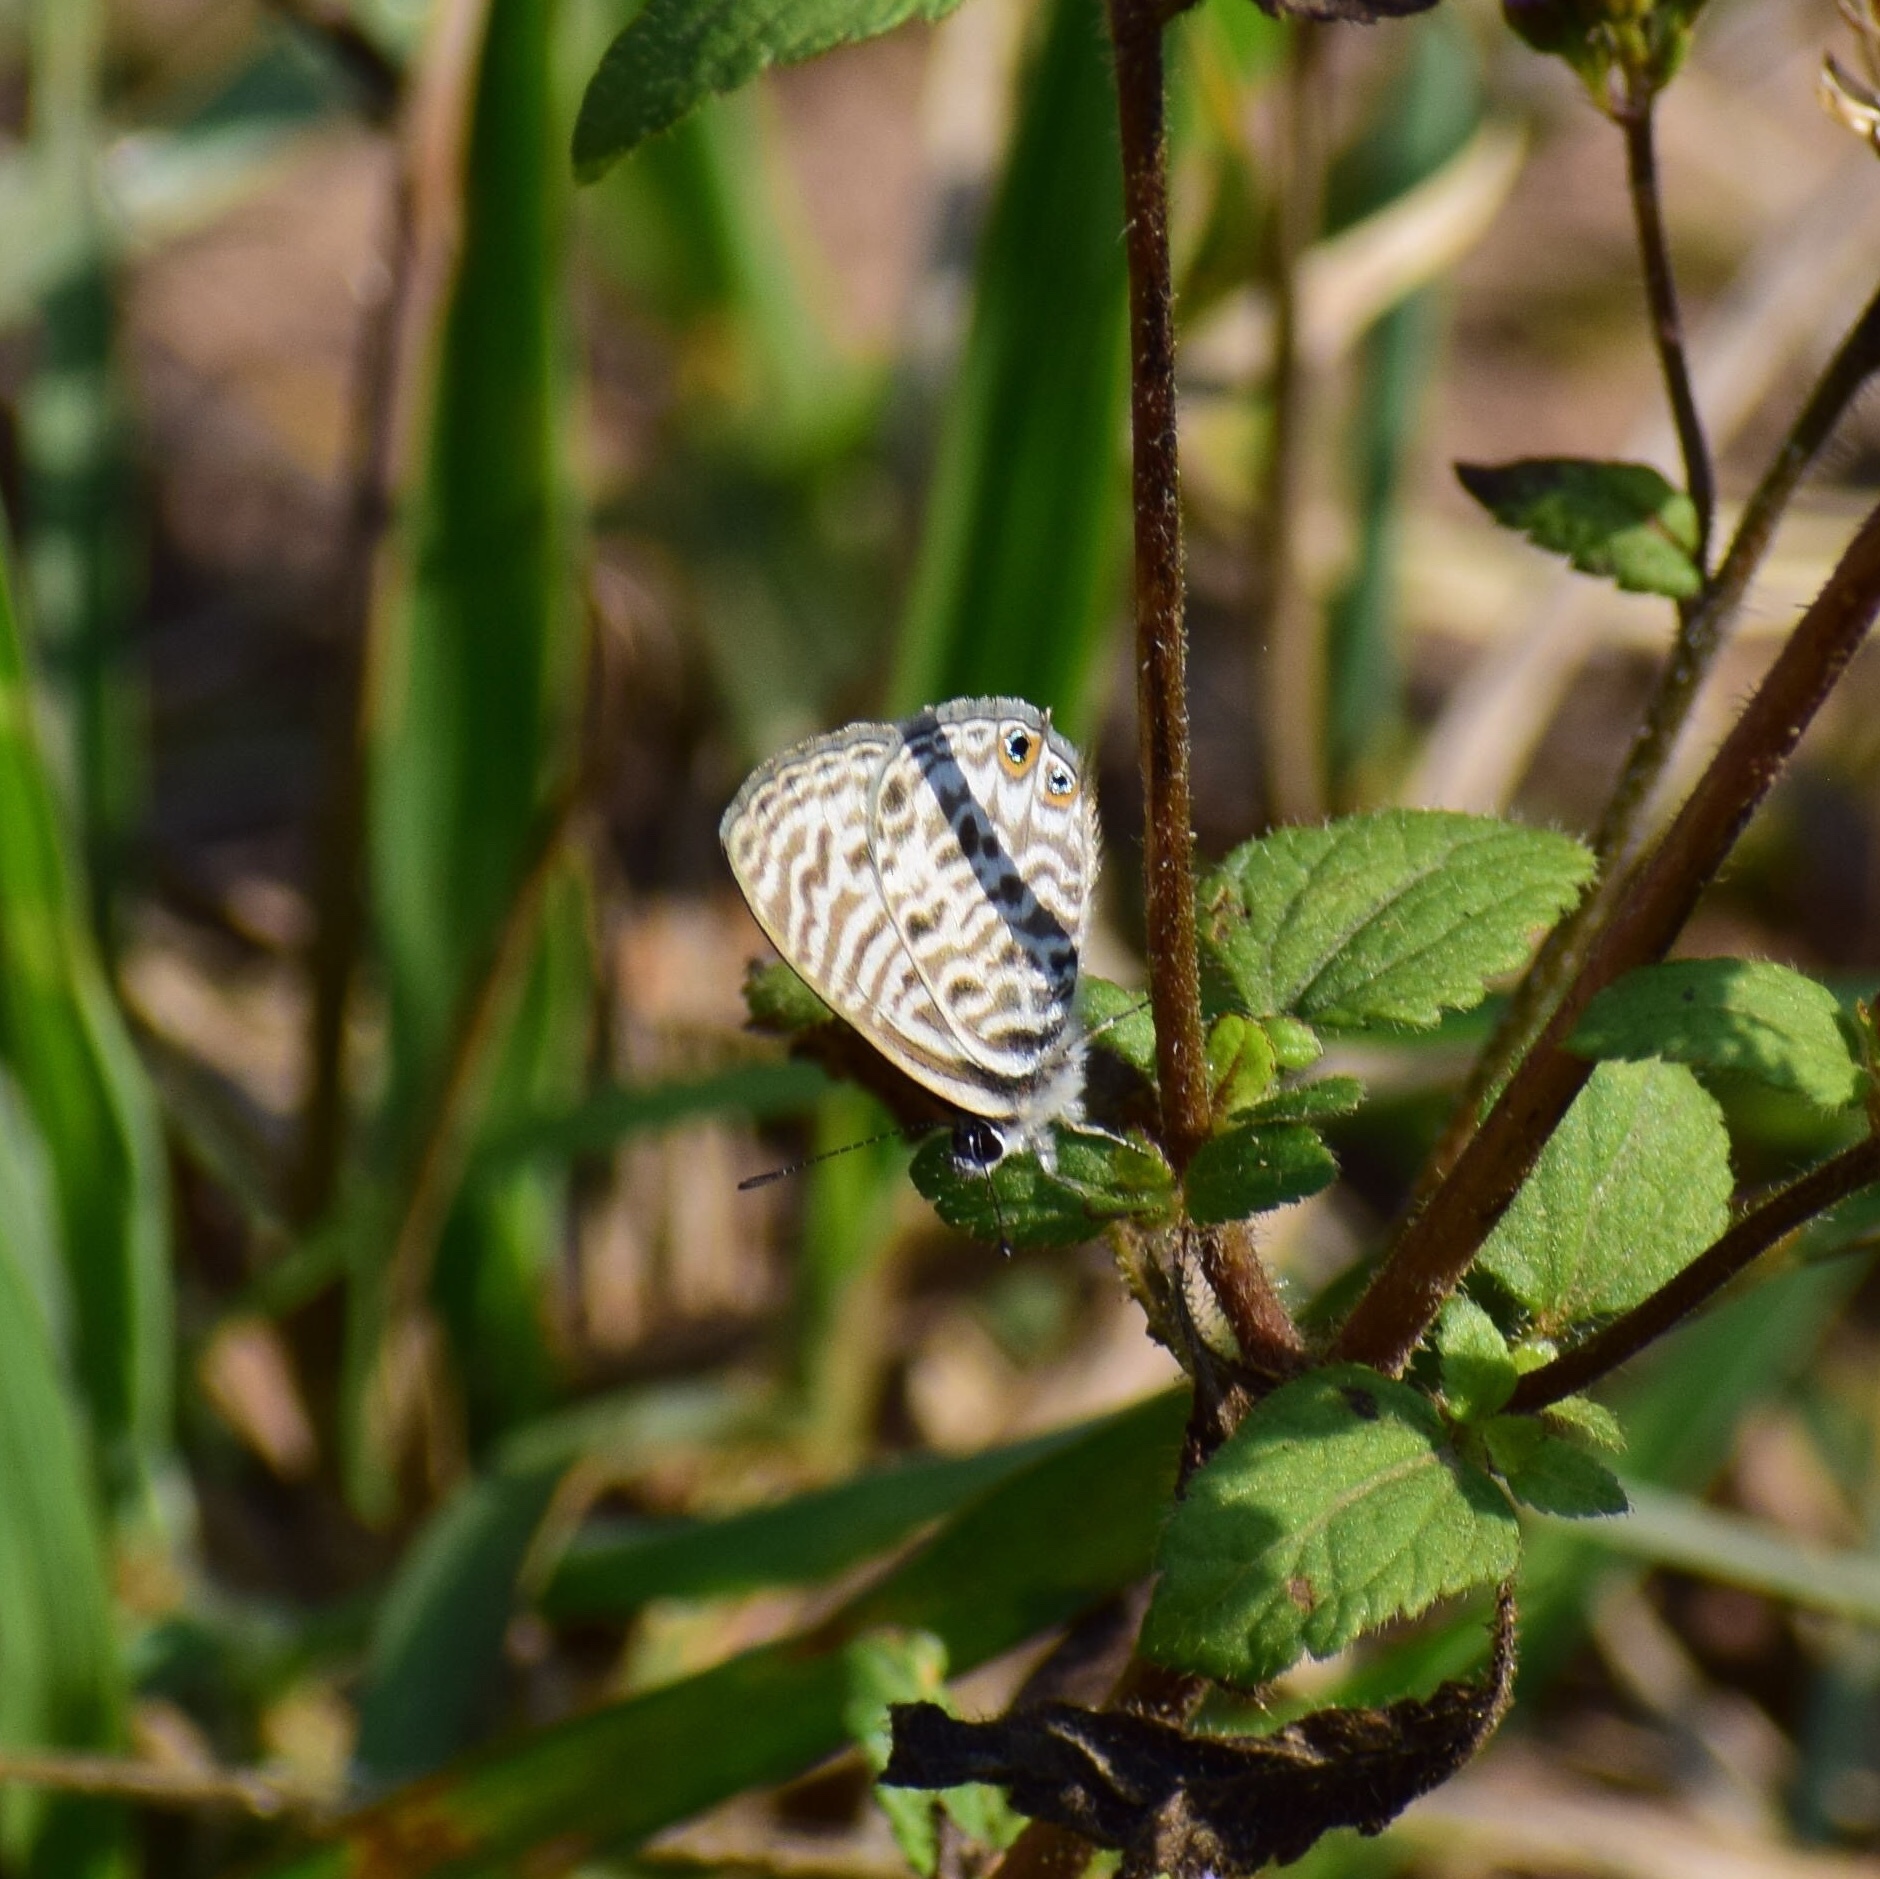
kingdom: Animalia
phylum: Arthropoda
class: Insecta
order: Lepidoptera
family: Lycaenidae
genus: Leptotes
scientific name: Leptotes
